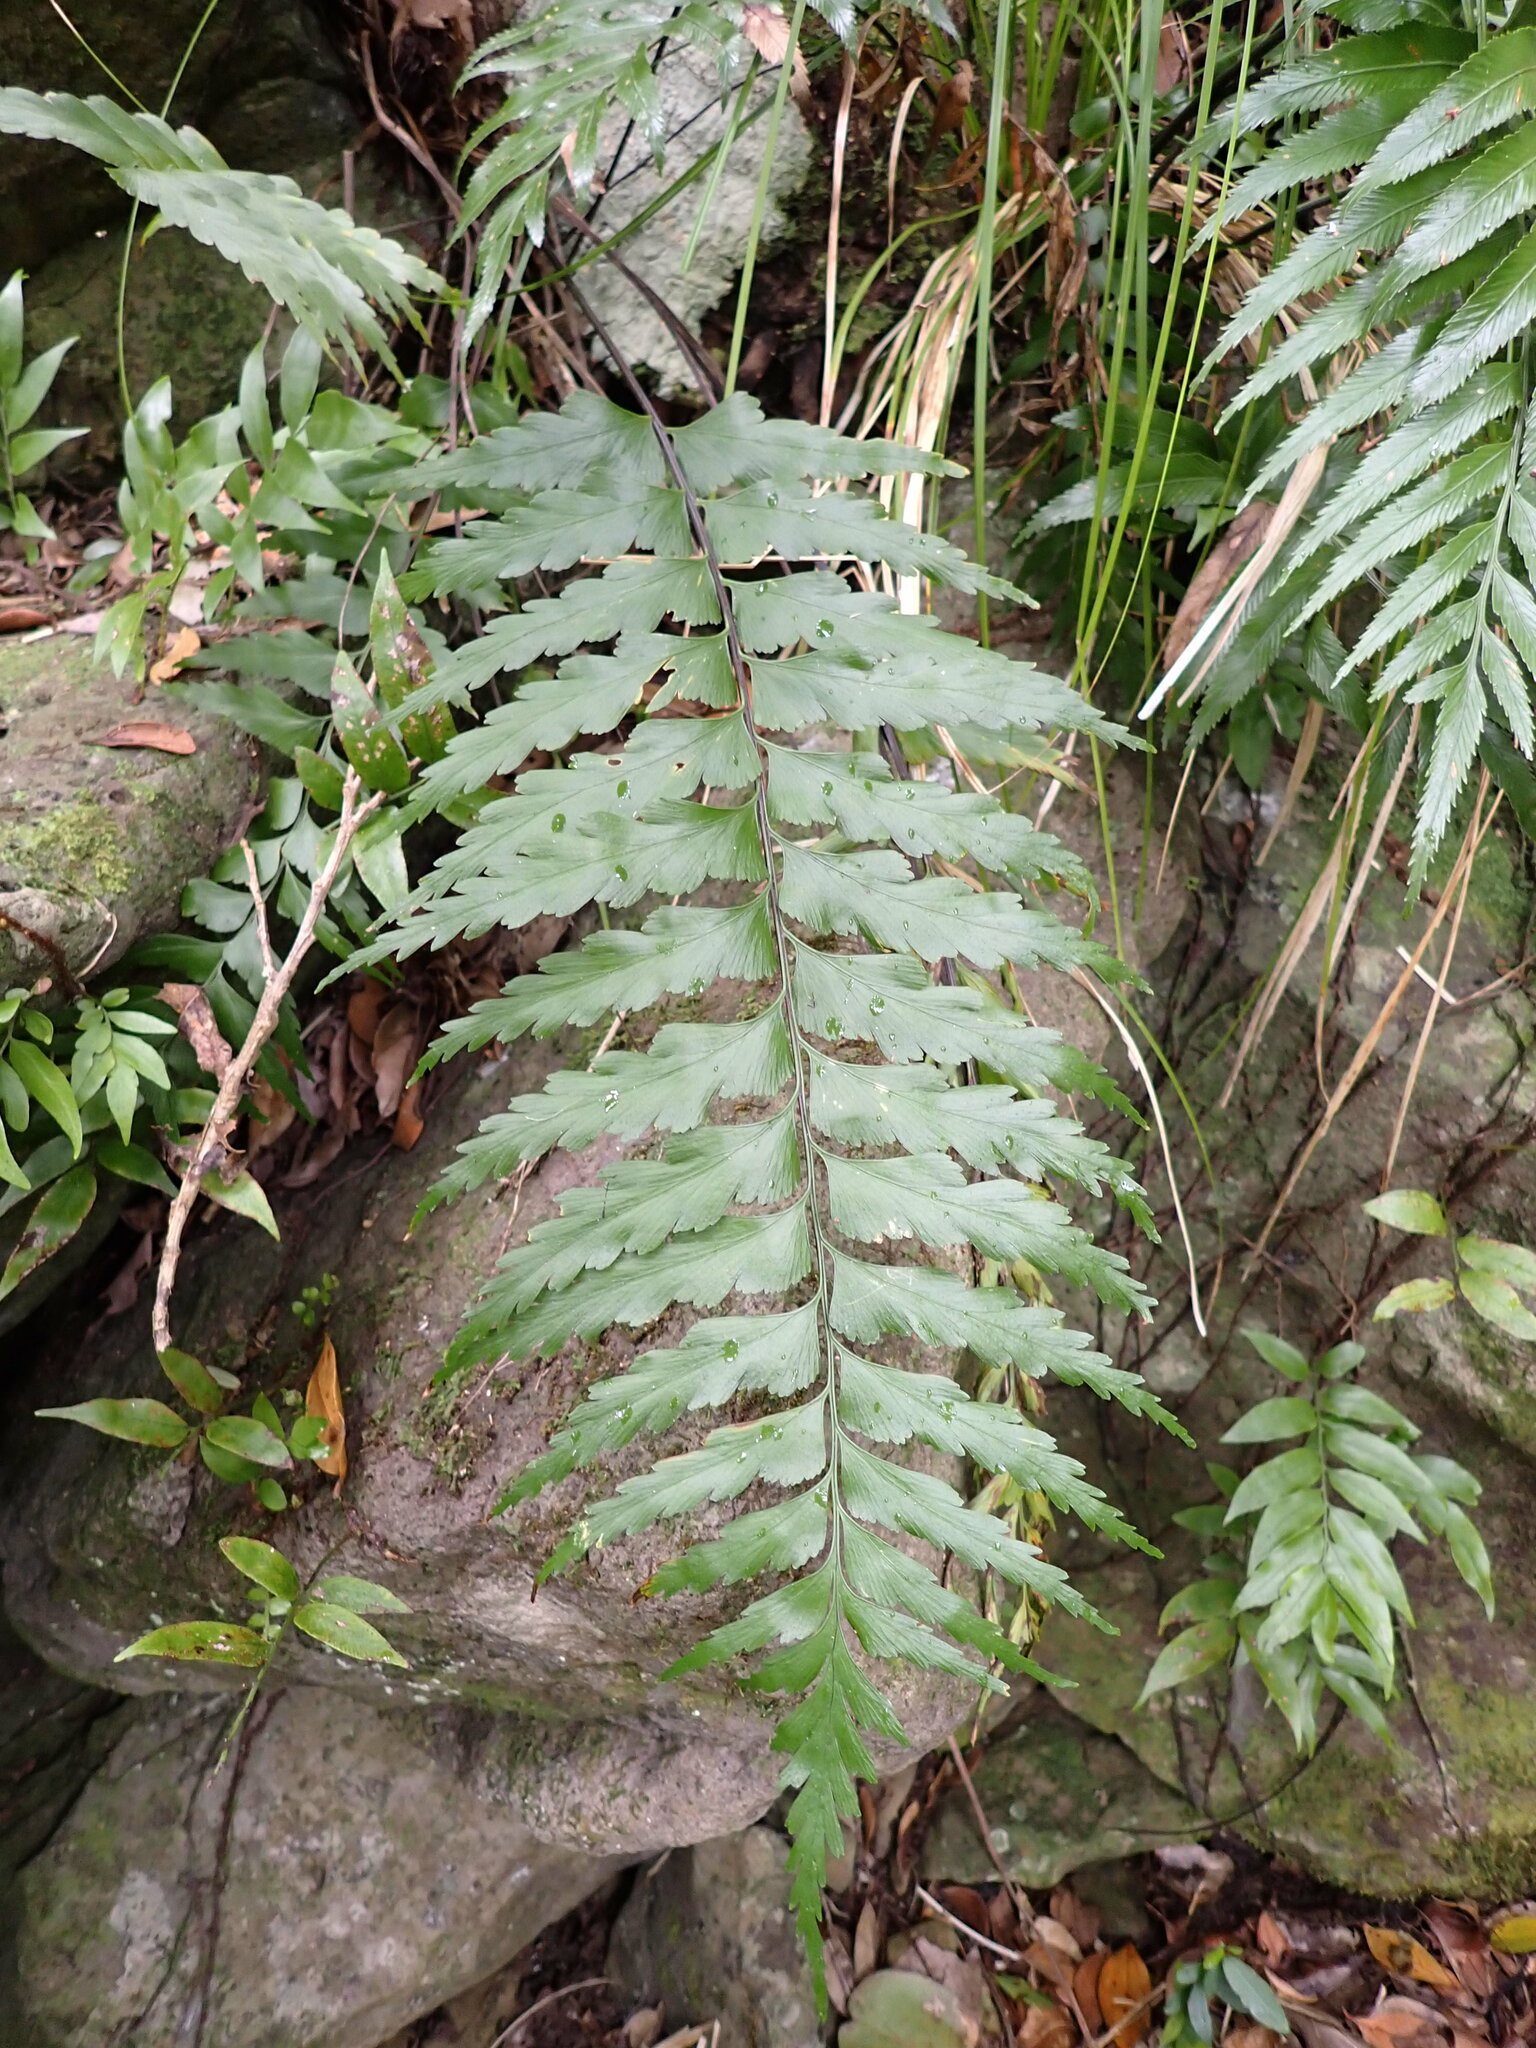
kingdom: Plantae
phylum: Tracheophyta
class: Polypodiopsida
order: Polypodiales
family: Aspleniaceae
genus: Asplenium
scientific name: Asplenium polyodon
